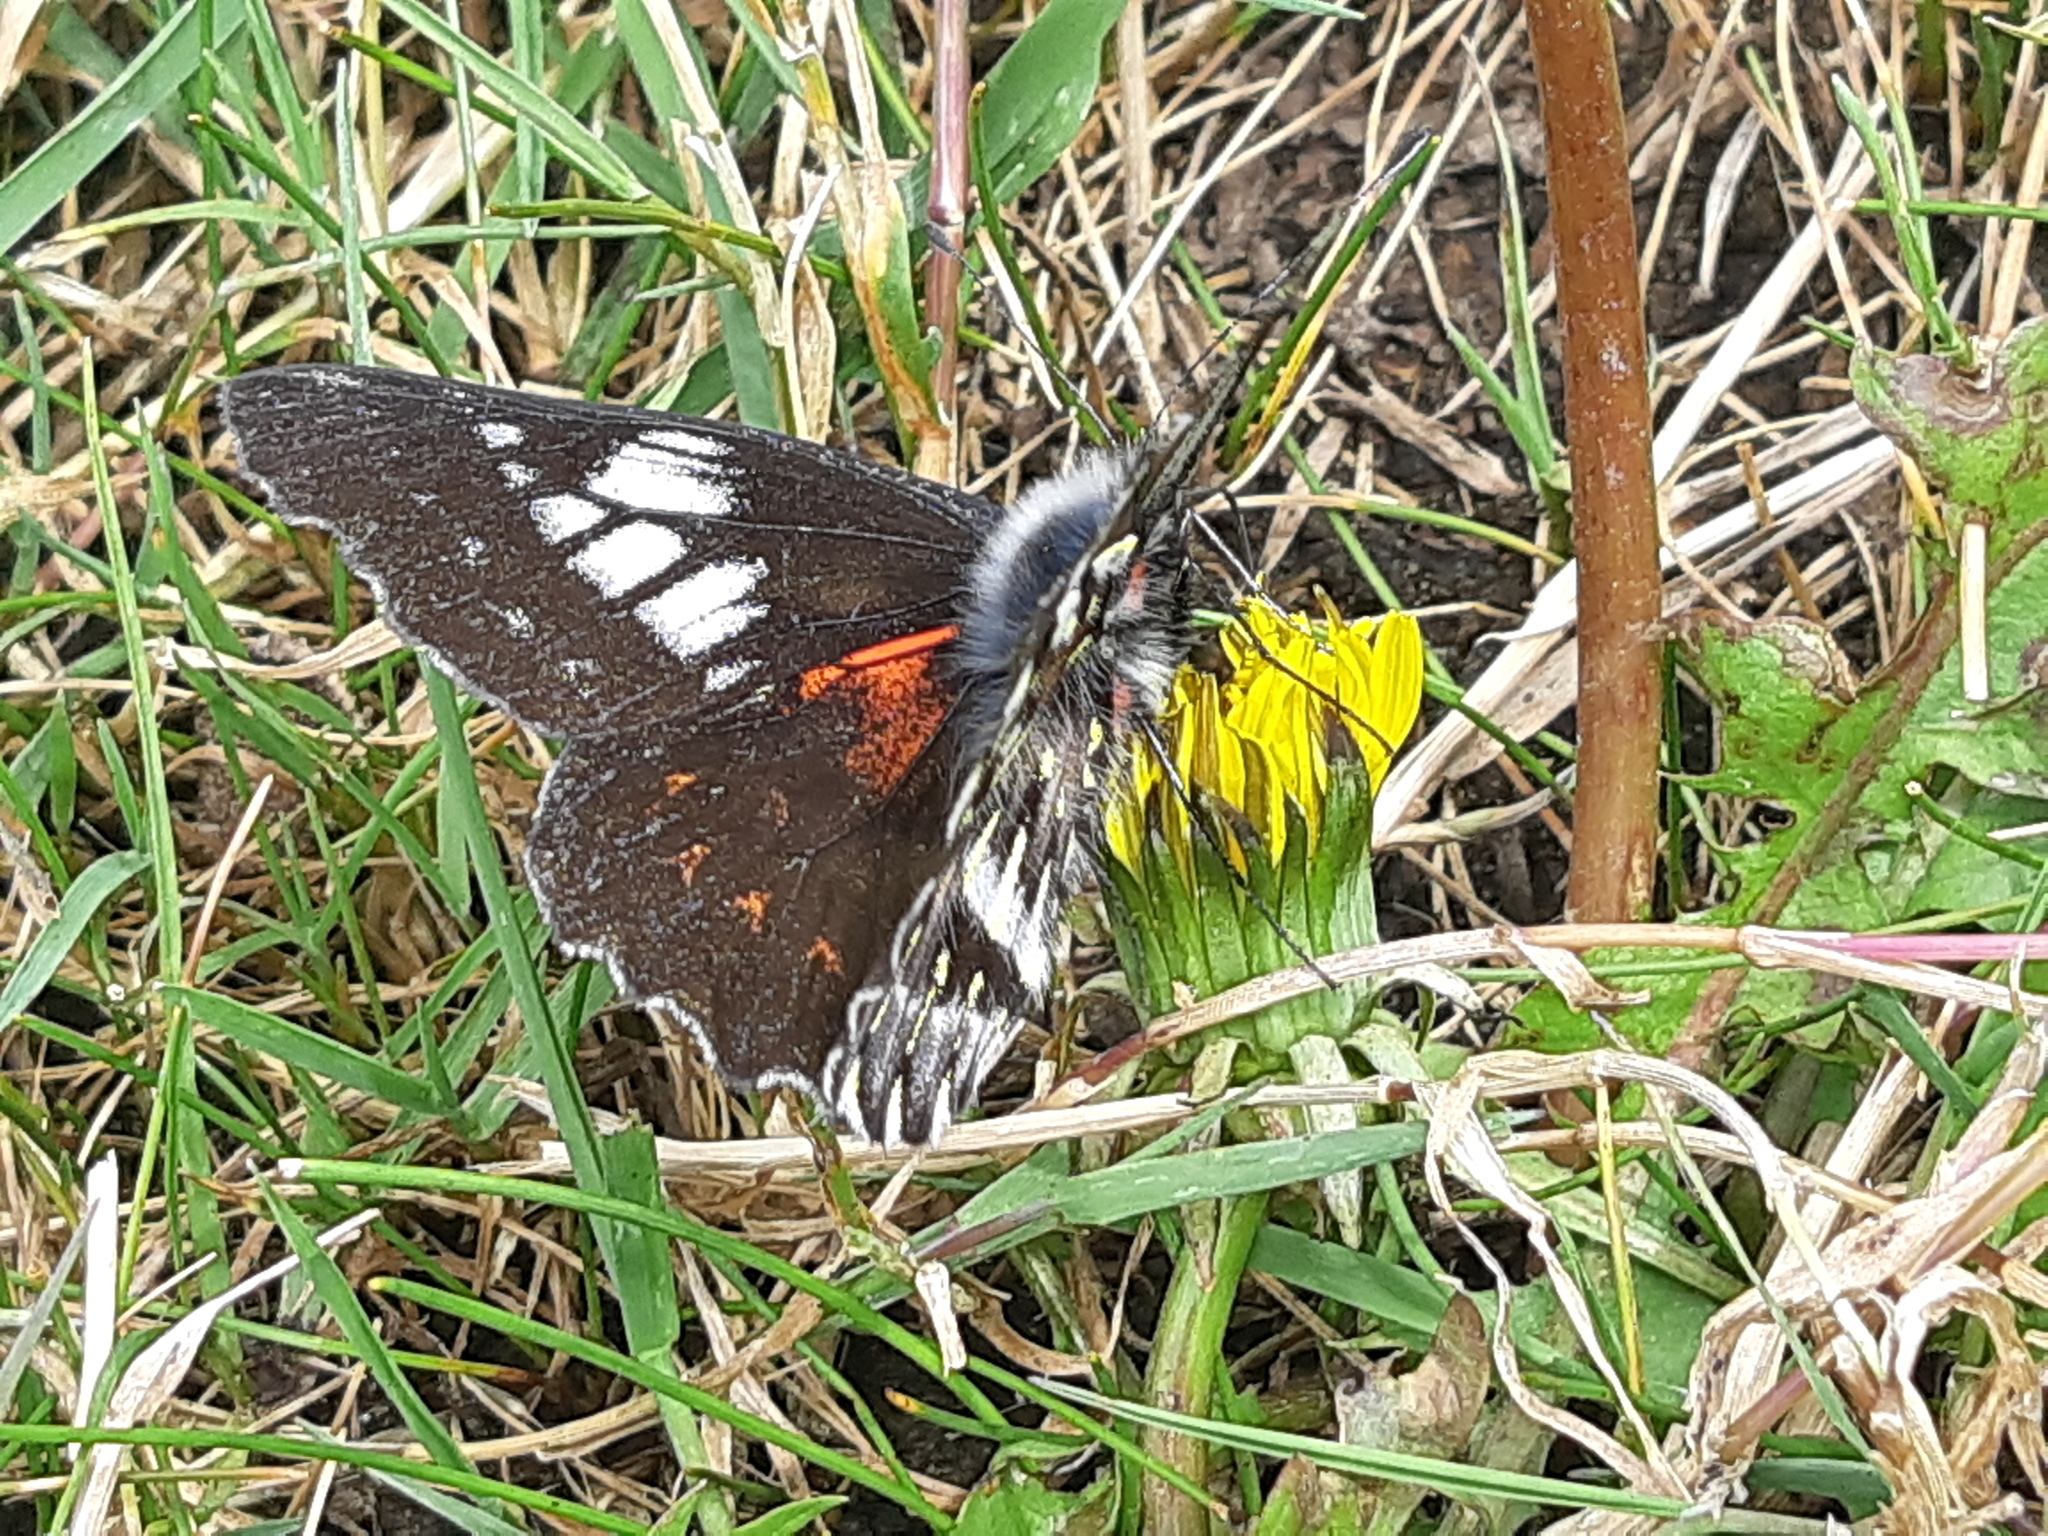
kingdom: Animalia
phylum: Arthropoda
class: Insecta
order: Lepidoptera
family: Pieridae
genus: Catasticta
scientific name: Catasticta albofasciata
